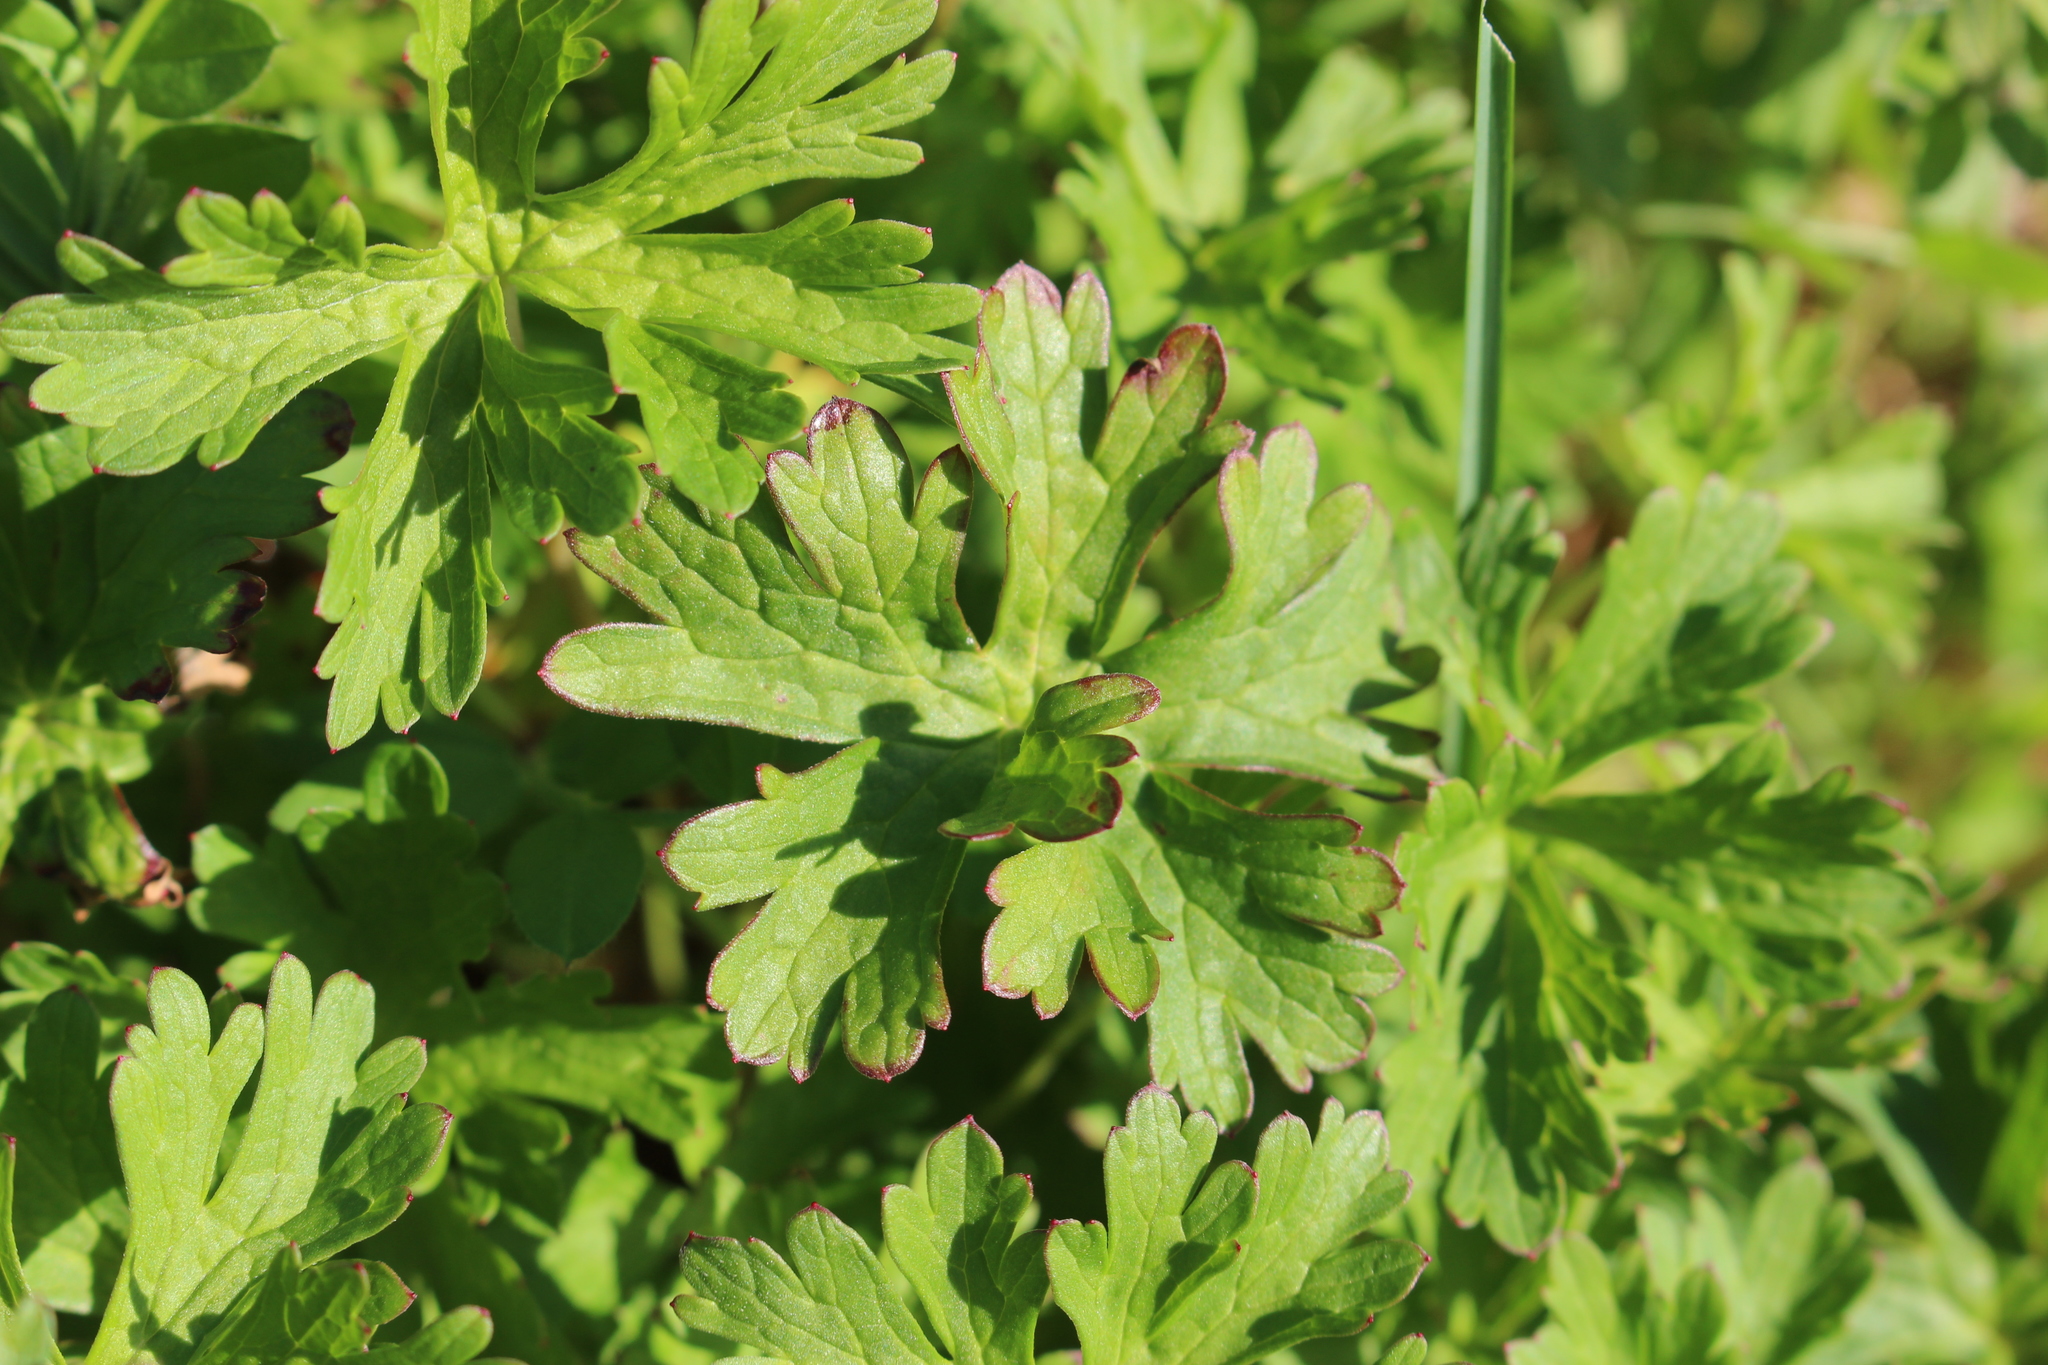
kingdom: Plantae
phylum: Tracheophyta
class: Magnoliopsida
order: Geraniales
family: Geraniaceae
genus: Geranium
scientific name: Geranium retrorsum
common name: New zealand geranium
